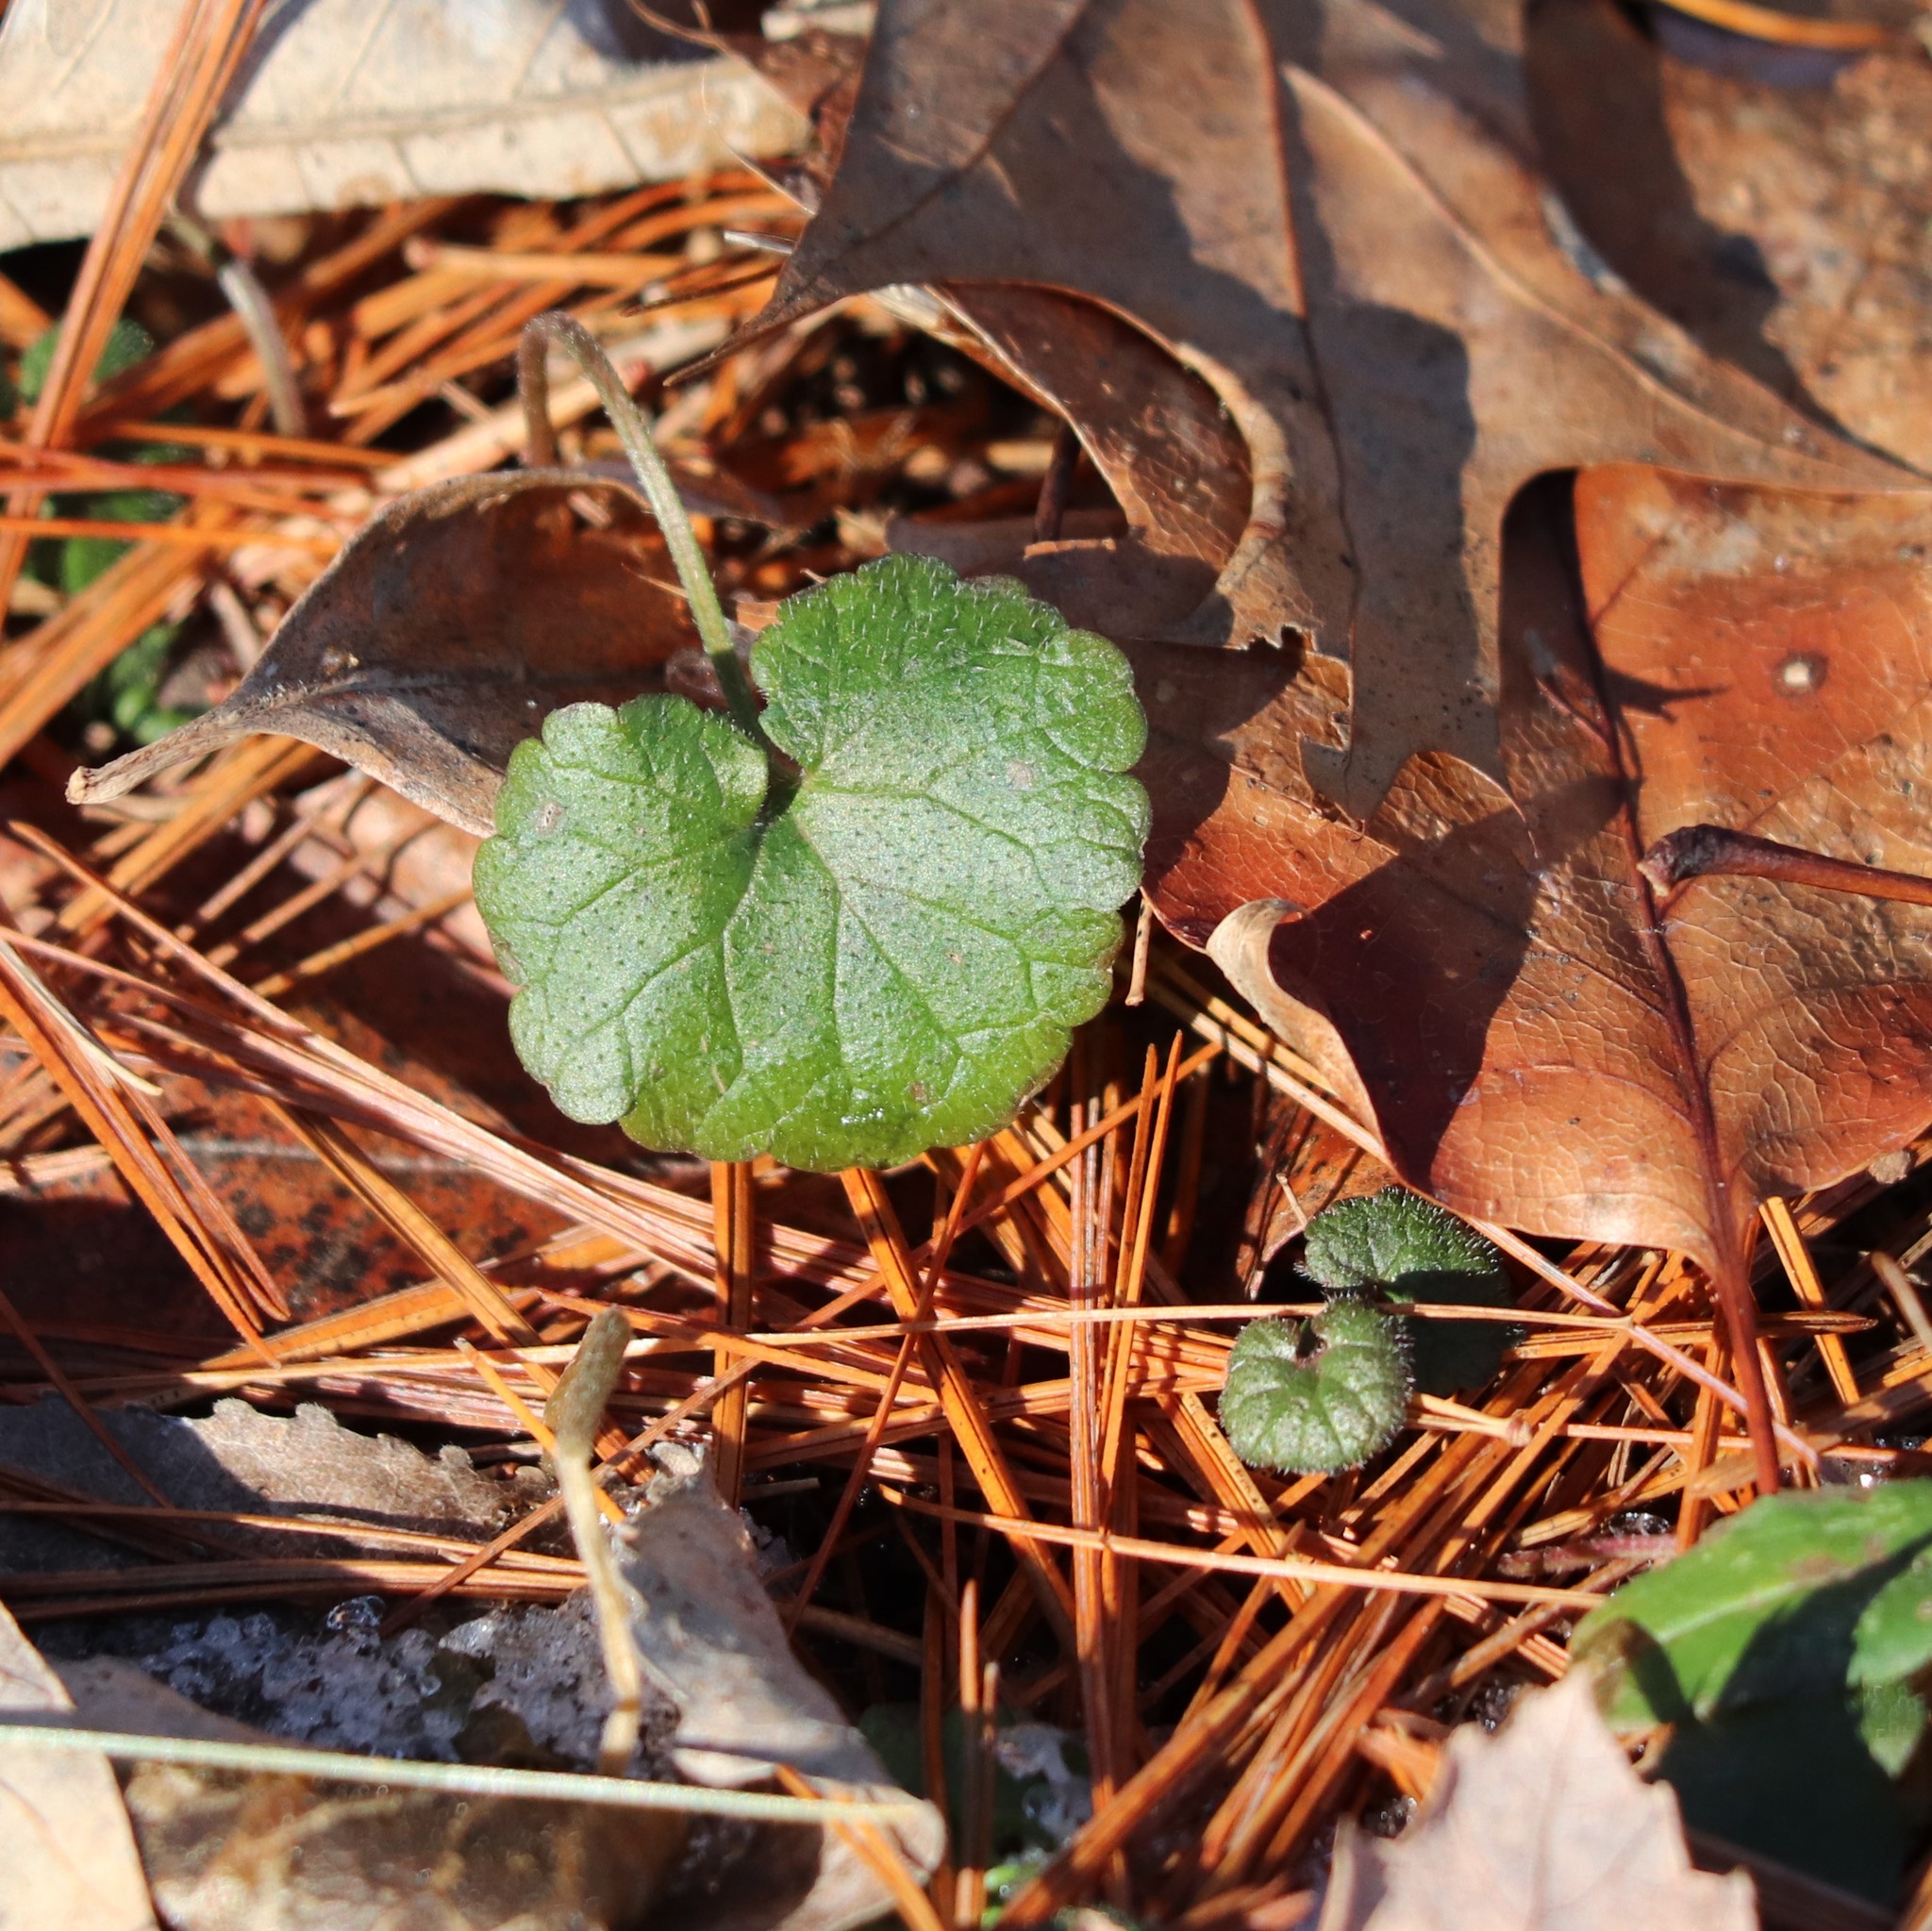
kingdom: Plantae
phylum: Tracheophyta
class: Magnoliopsida
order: Lamiales
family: Lamiaceae
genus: Glechoma
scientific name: Glechoma hederacea
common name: Ground ivy
